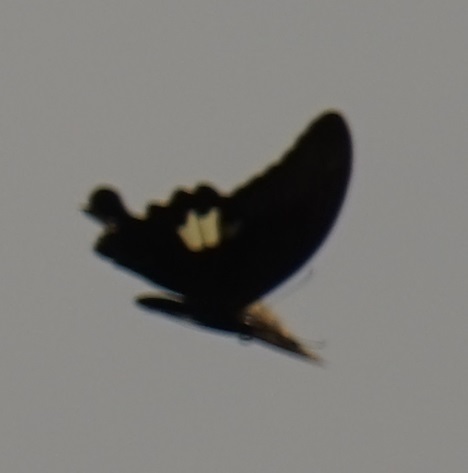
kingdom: Animalia
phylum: Arthropoda
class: Insecta
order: Lepidoptera
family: Papilionidae
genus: Papilio
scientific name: Papilio helenus
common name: Red helen
